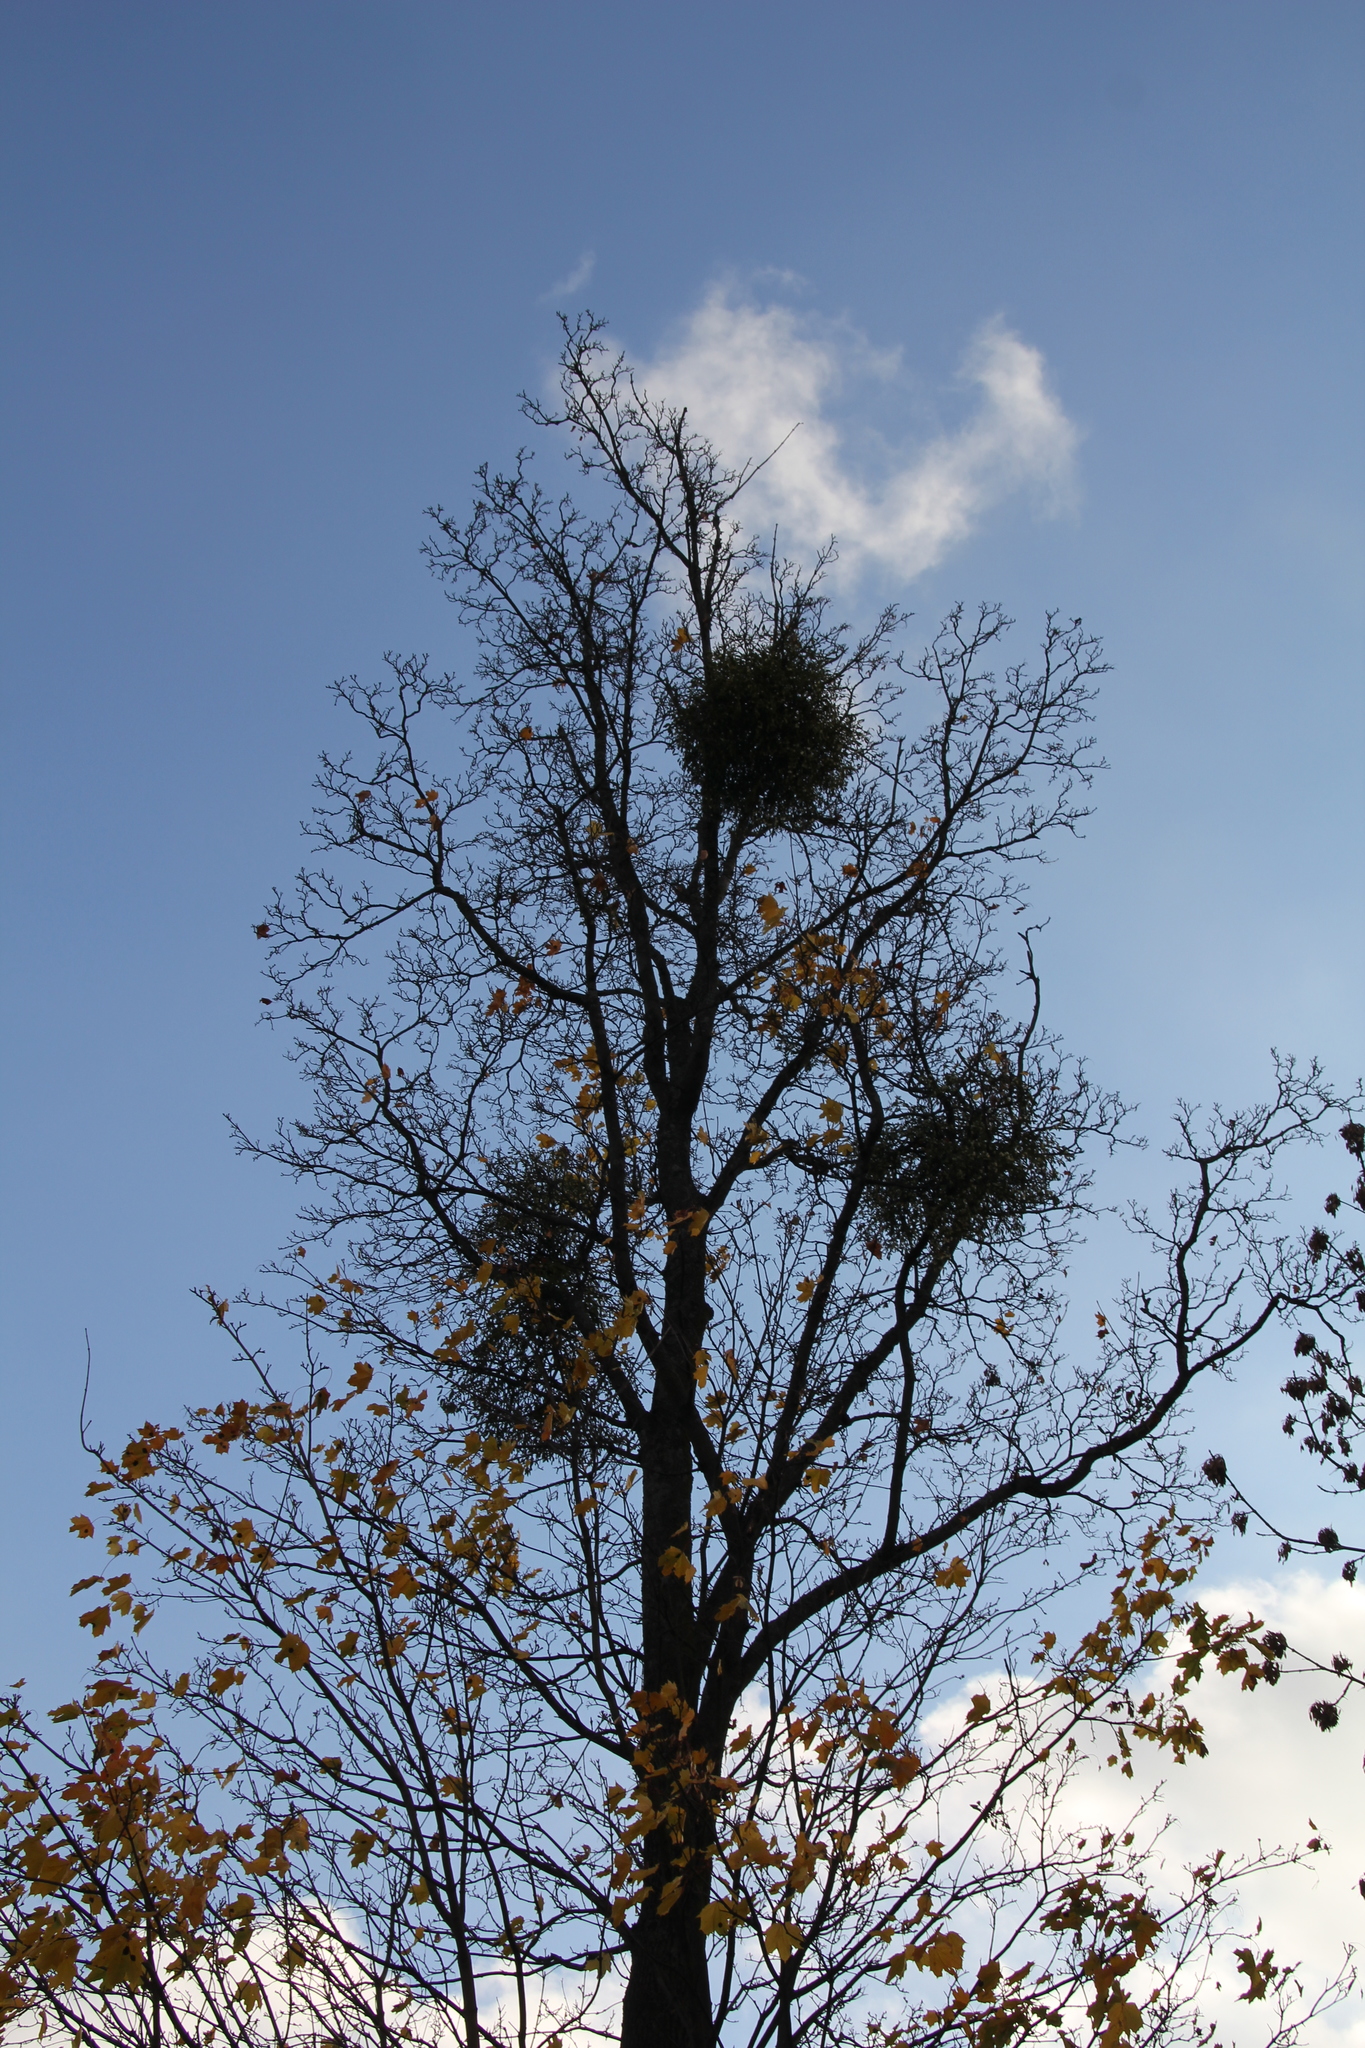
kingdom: Plantae
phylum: Tracheophyta
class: Magnoliopsida
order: Santalales
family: Viscaceae
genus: Viscum
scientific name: Viscum album
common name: Mistletoe
